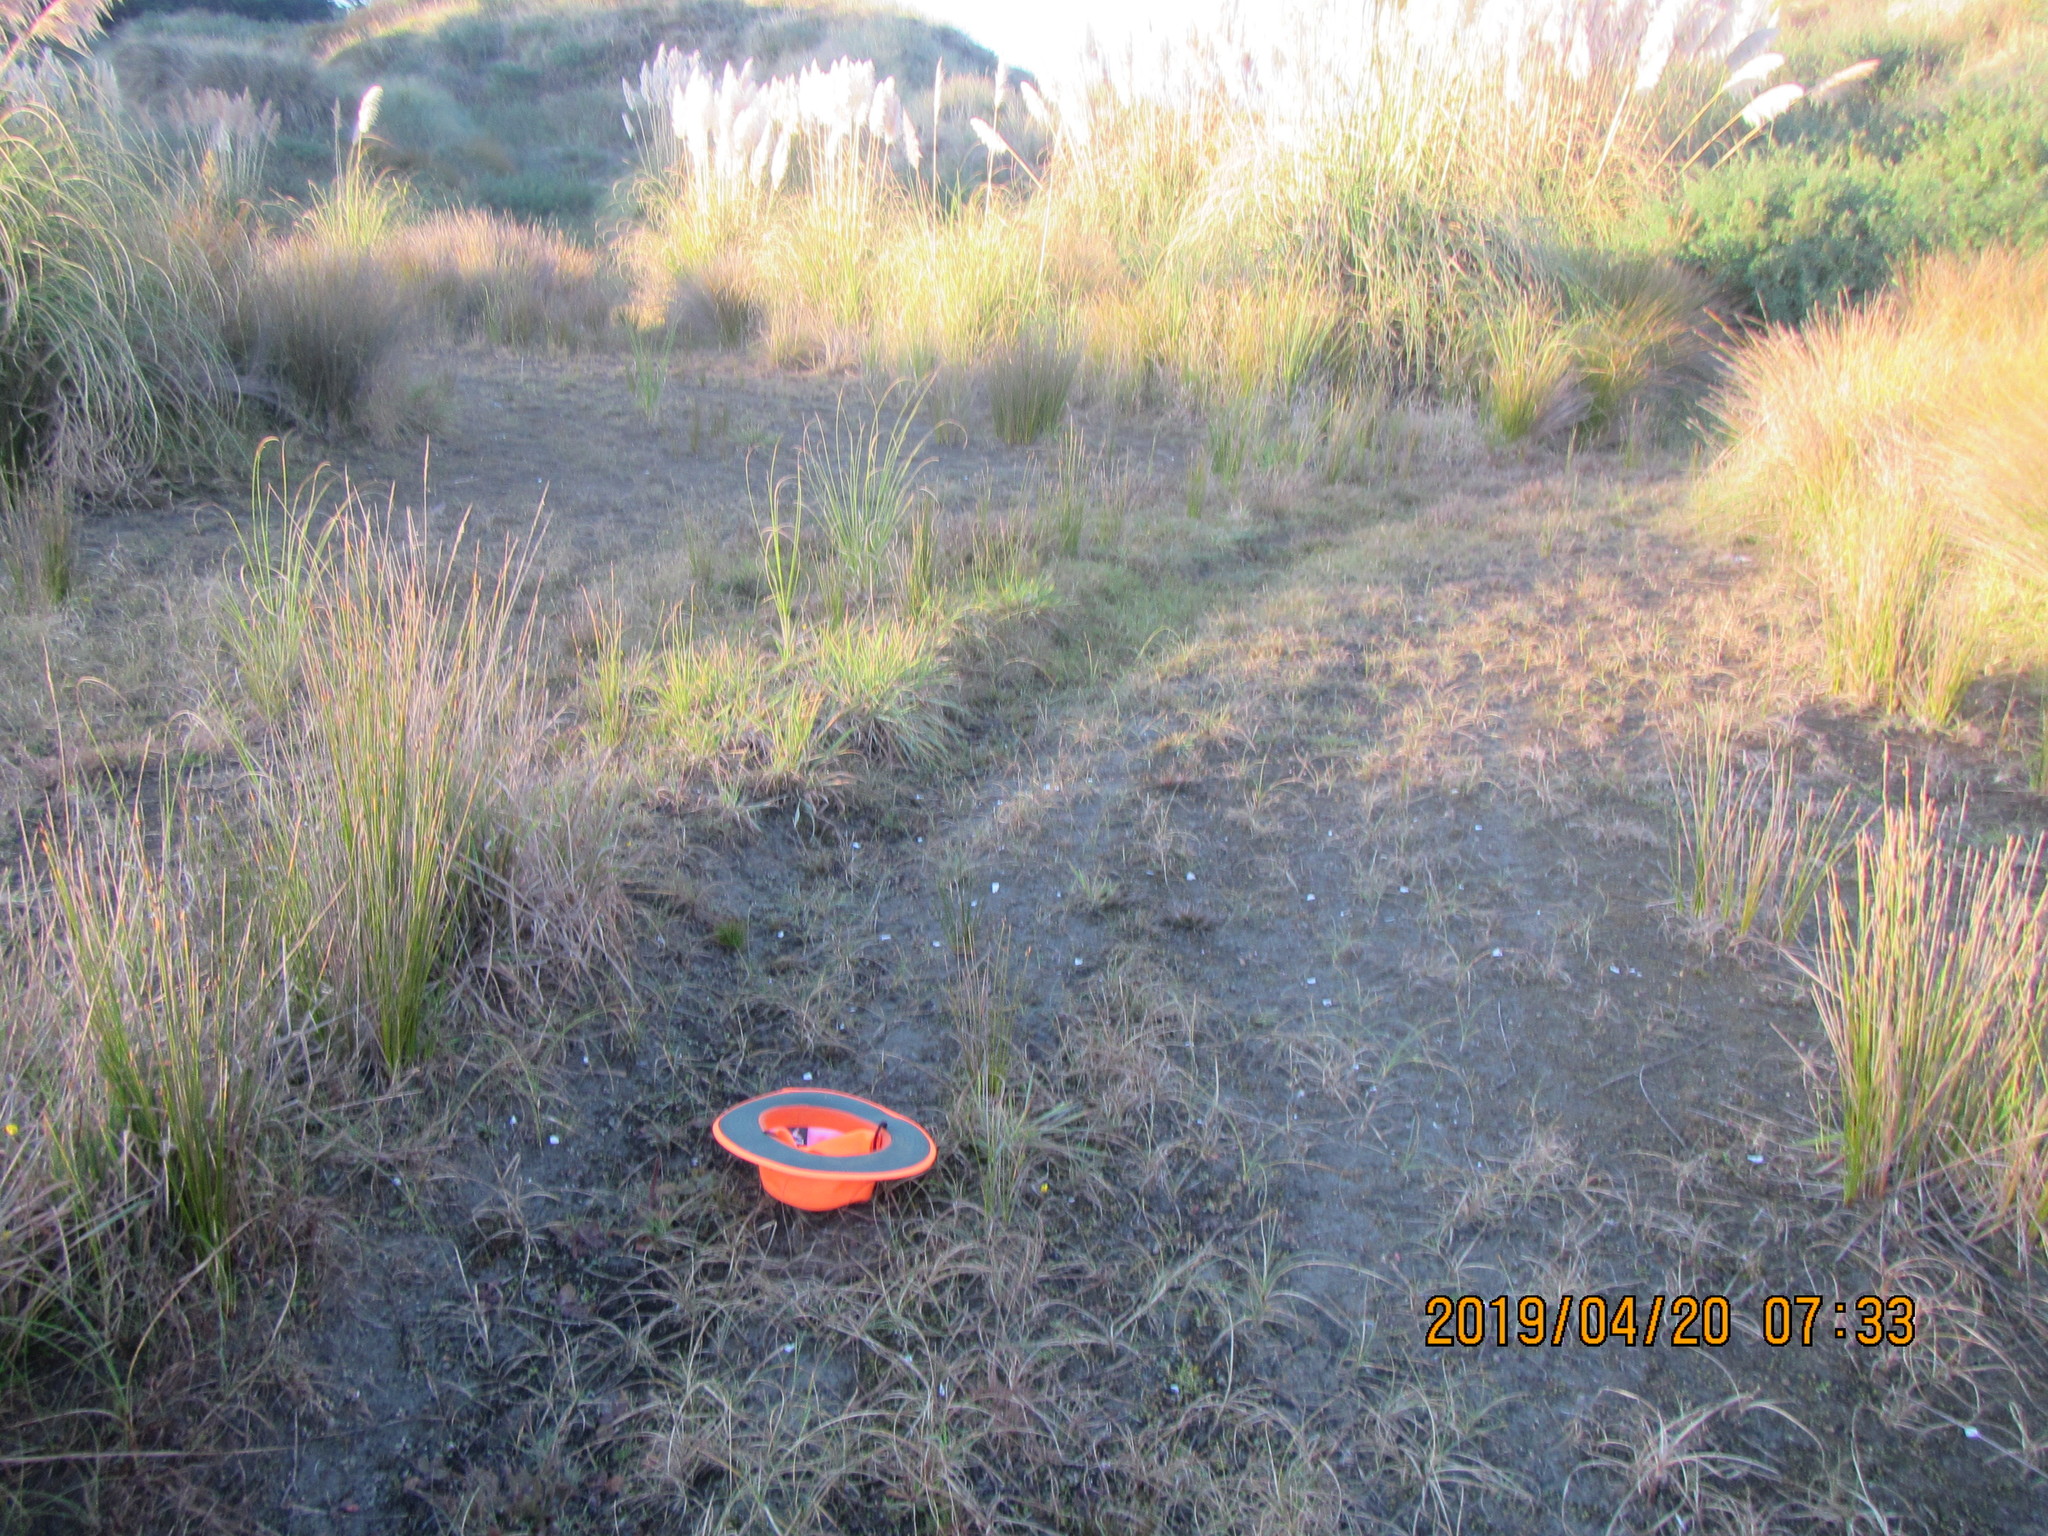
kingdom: Plantae
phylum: Tracheophyta
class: Magnoliopsida
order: Lamiales
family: Plantaginaceae
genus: Plantago
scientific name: Plantago major
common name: Common plantain
